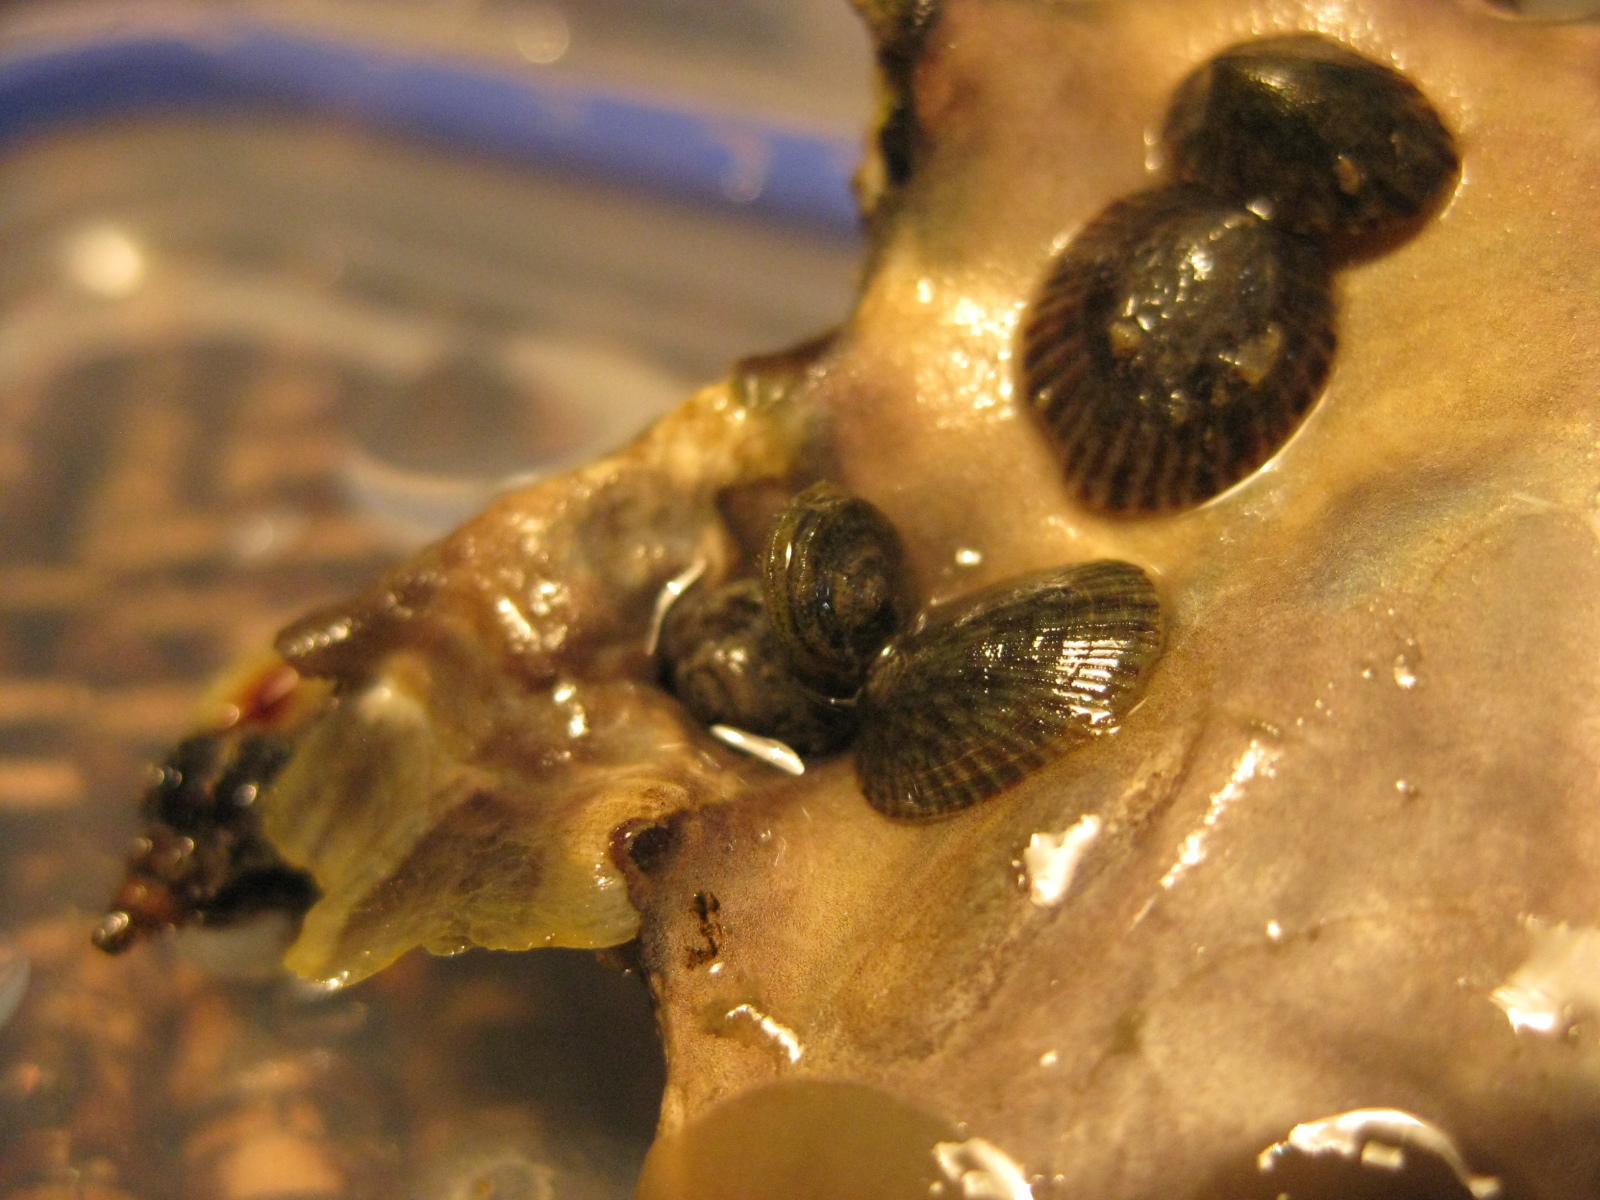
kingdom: Animalia
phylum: Mollusca
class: Gastropoda
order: Littorinimorpha
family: Littorinidae
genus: Risellopsis
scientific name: Risellopsis varia
